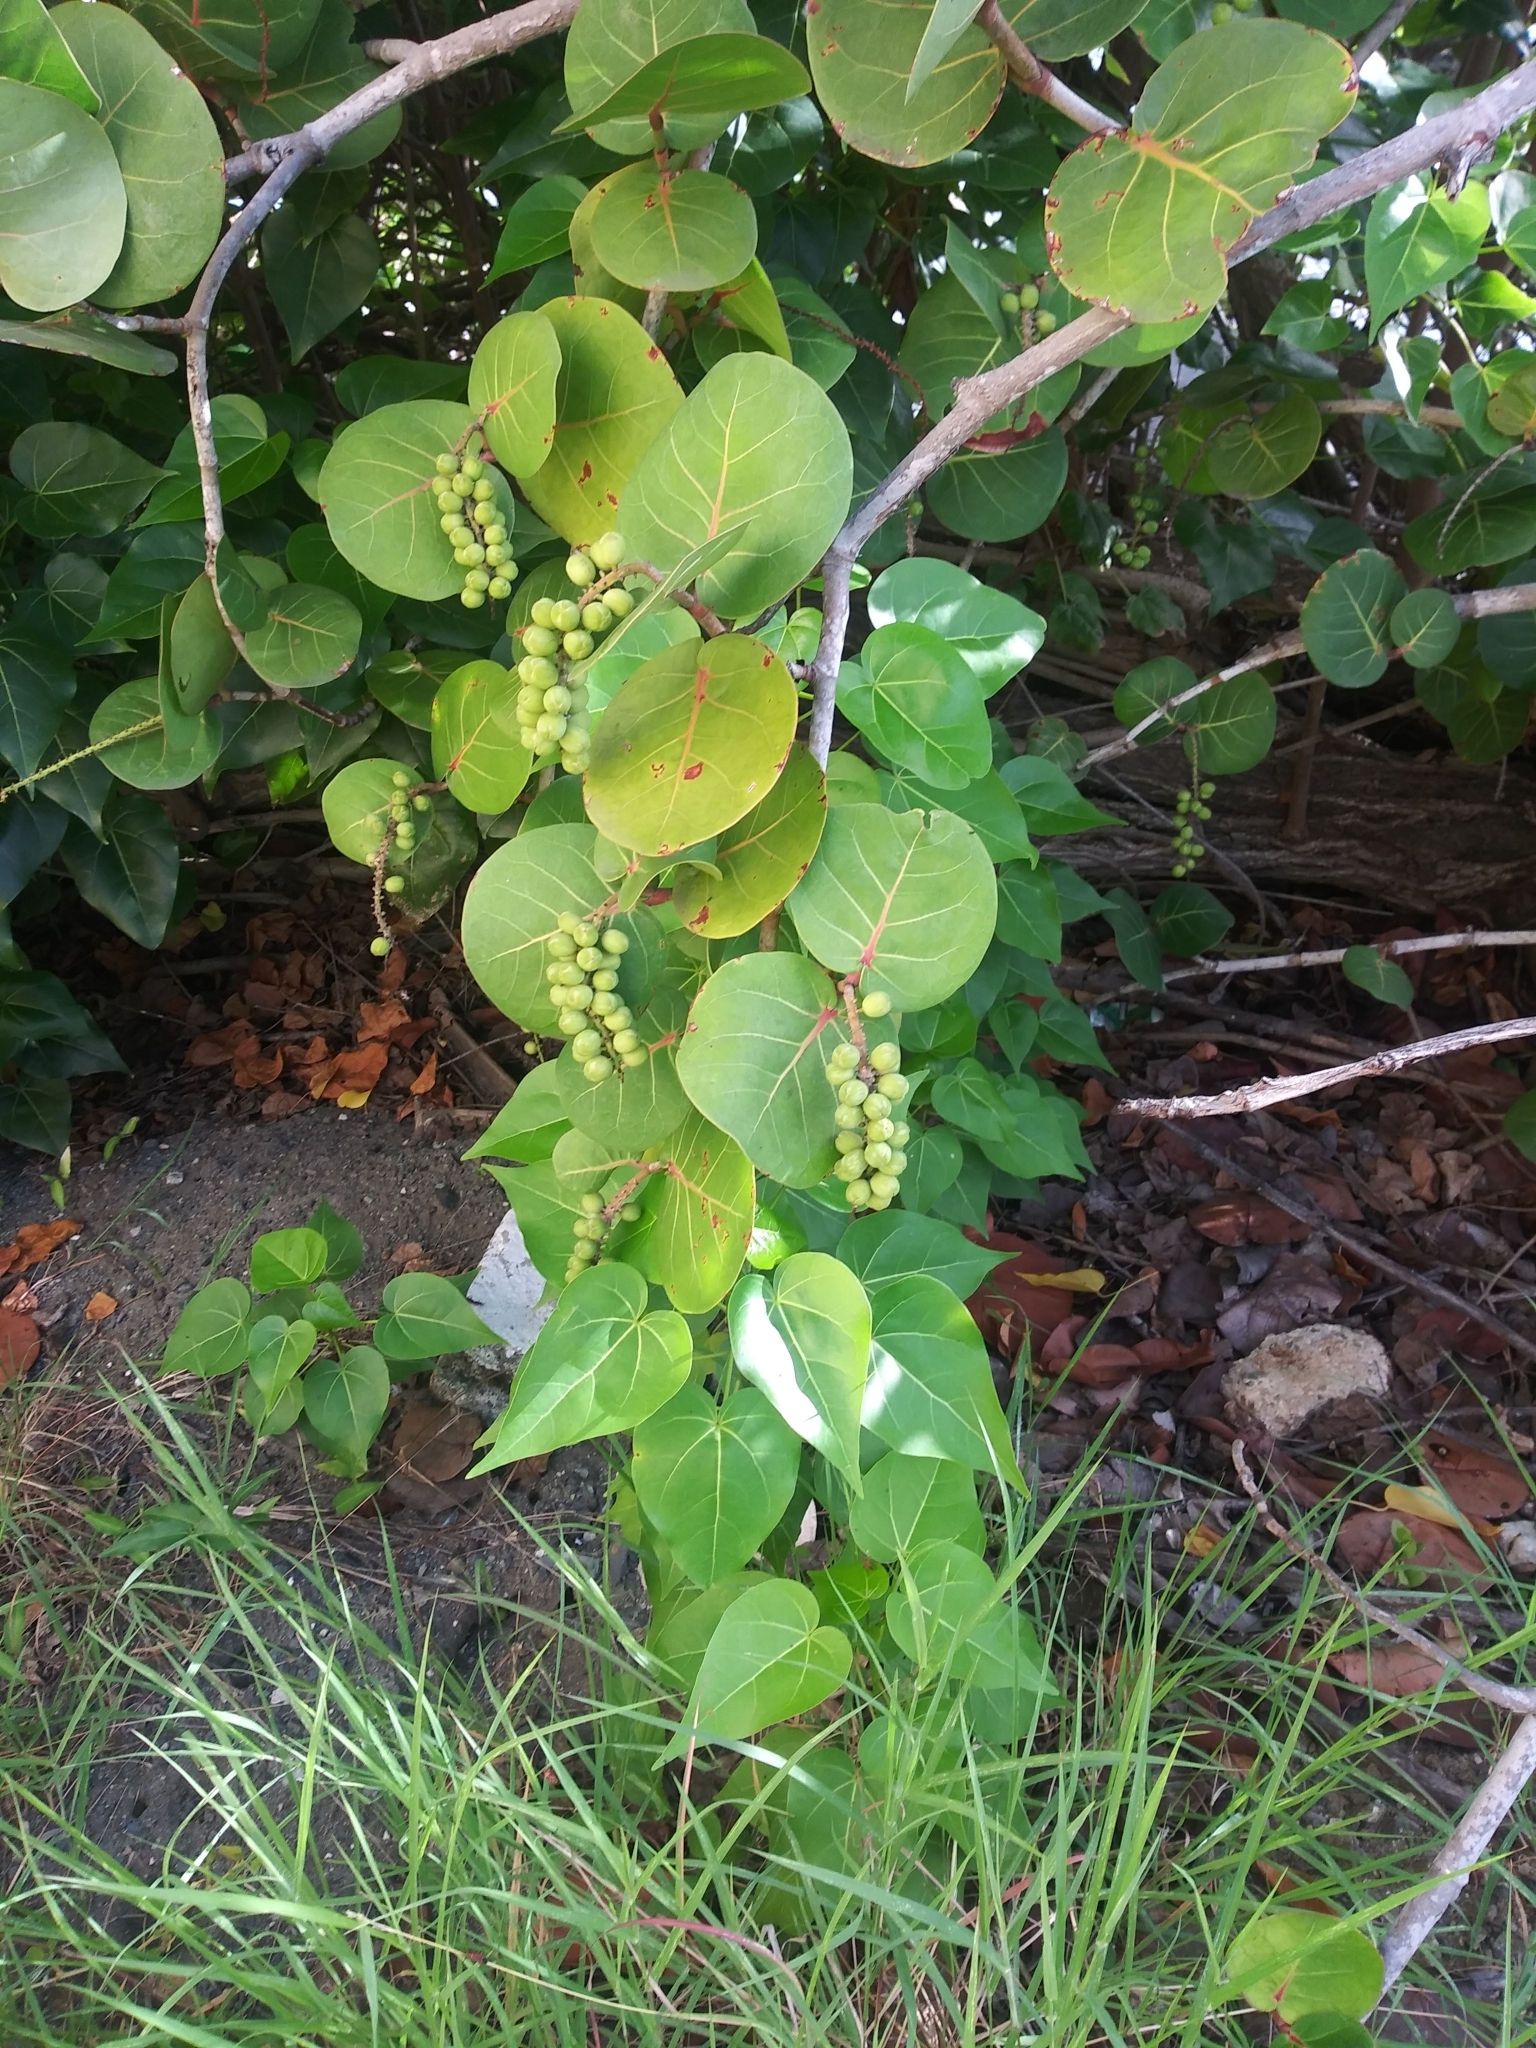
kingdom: Plantae
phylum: Tracheophyta
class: Magnoliopsida
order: Caryophyllales
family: Polygonaceae
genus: Coccoloba
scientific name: Coccoloba uvifera
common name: Seagrape
